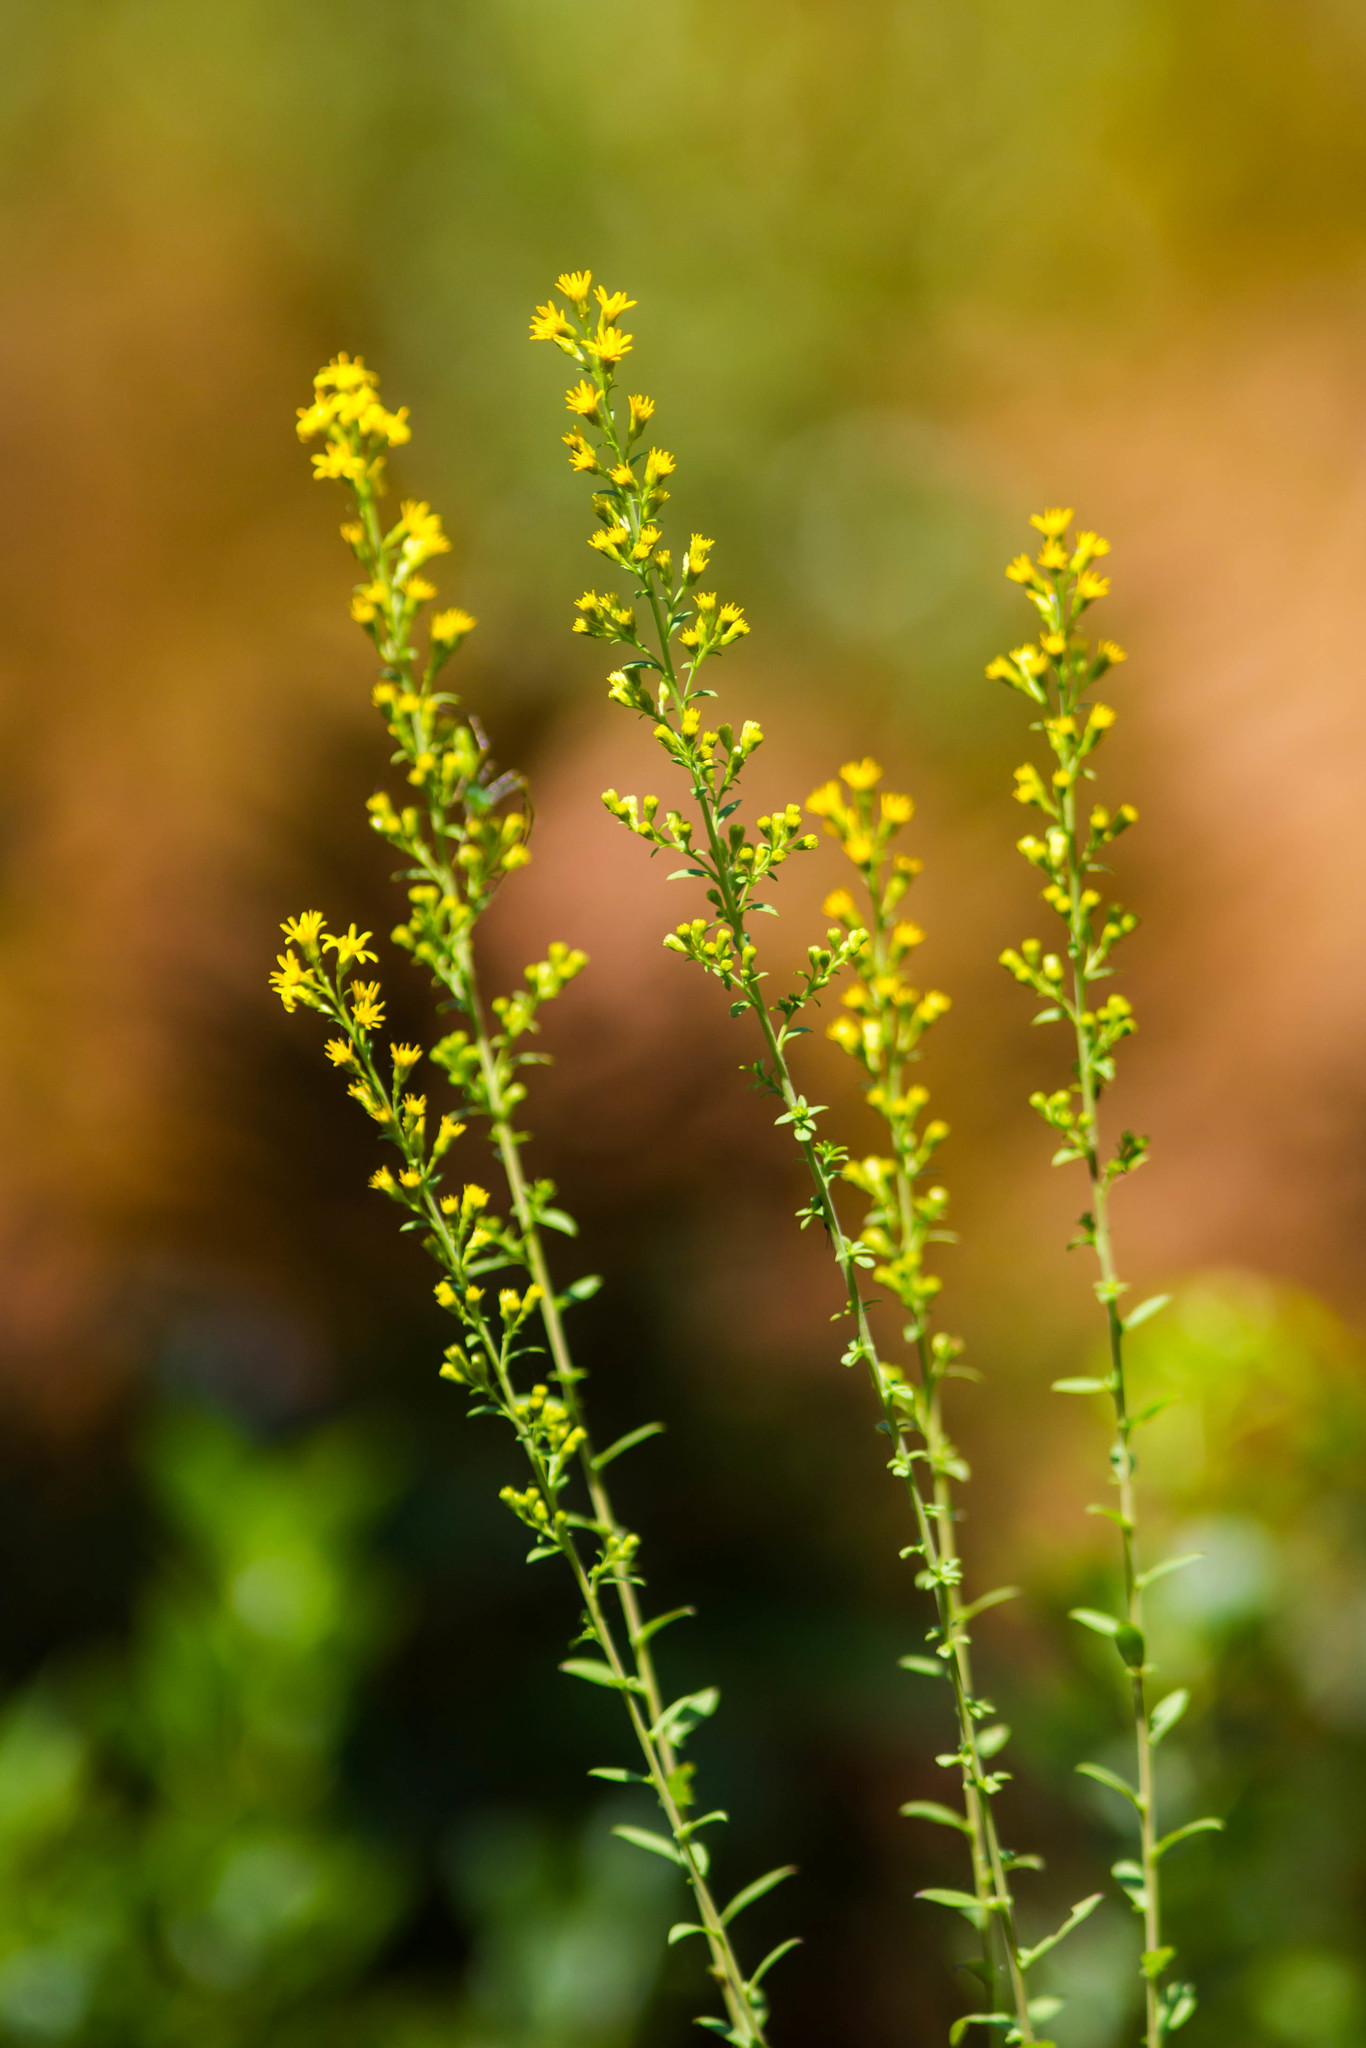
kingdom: Plantae
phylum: Tracheophyta
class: Magnoliopsida
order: Asterales
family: Asteraceae
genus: Solidago
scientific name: Solidago virgata
